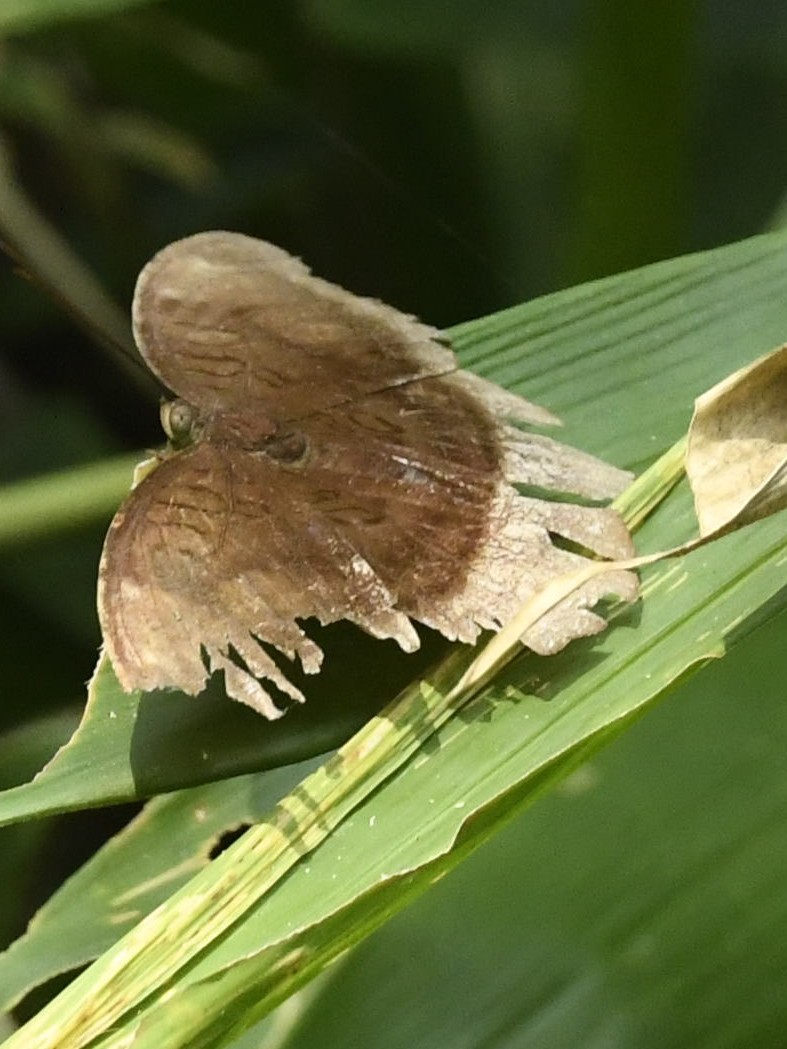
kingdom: Animalia
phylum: Arthropoda
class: Insecta
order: Lepidoptera
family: Nymphalidae
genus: Tanaecia
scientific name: Tanaecia lepidea
